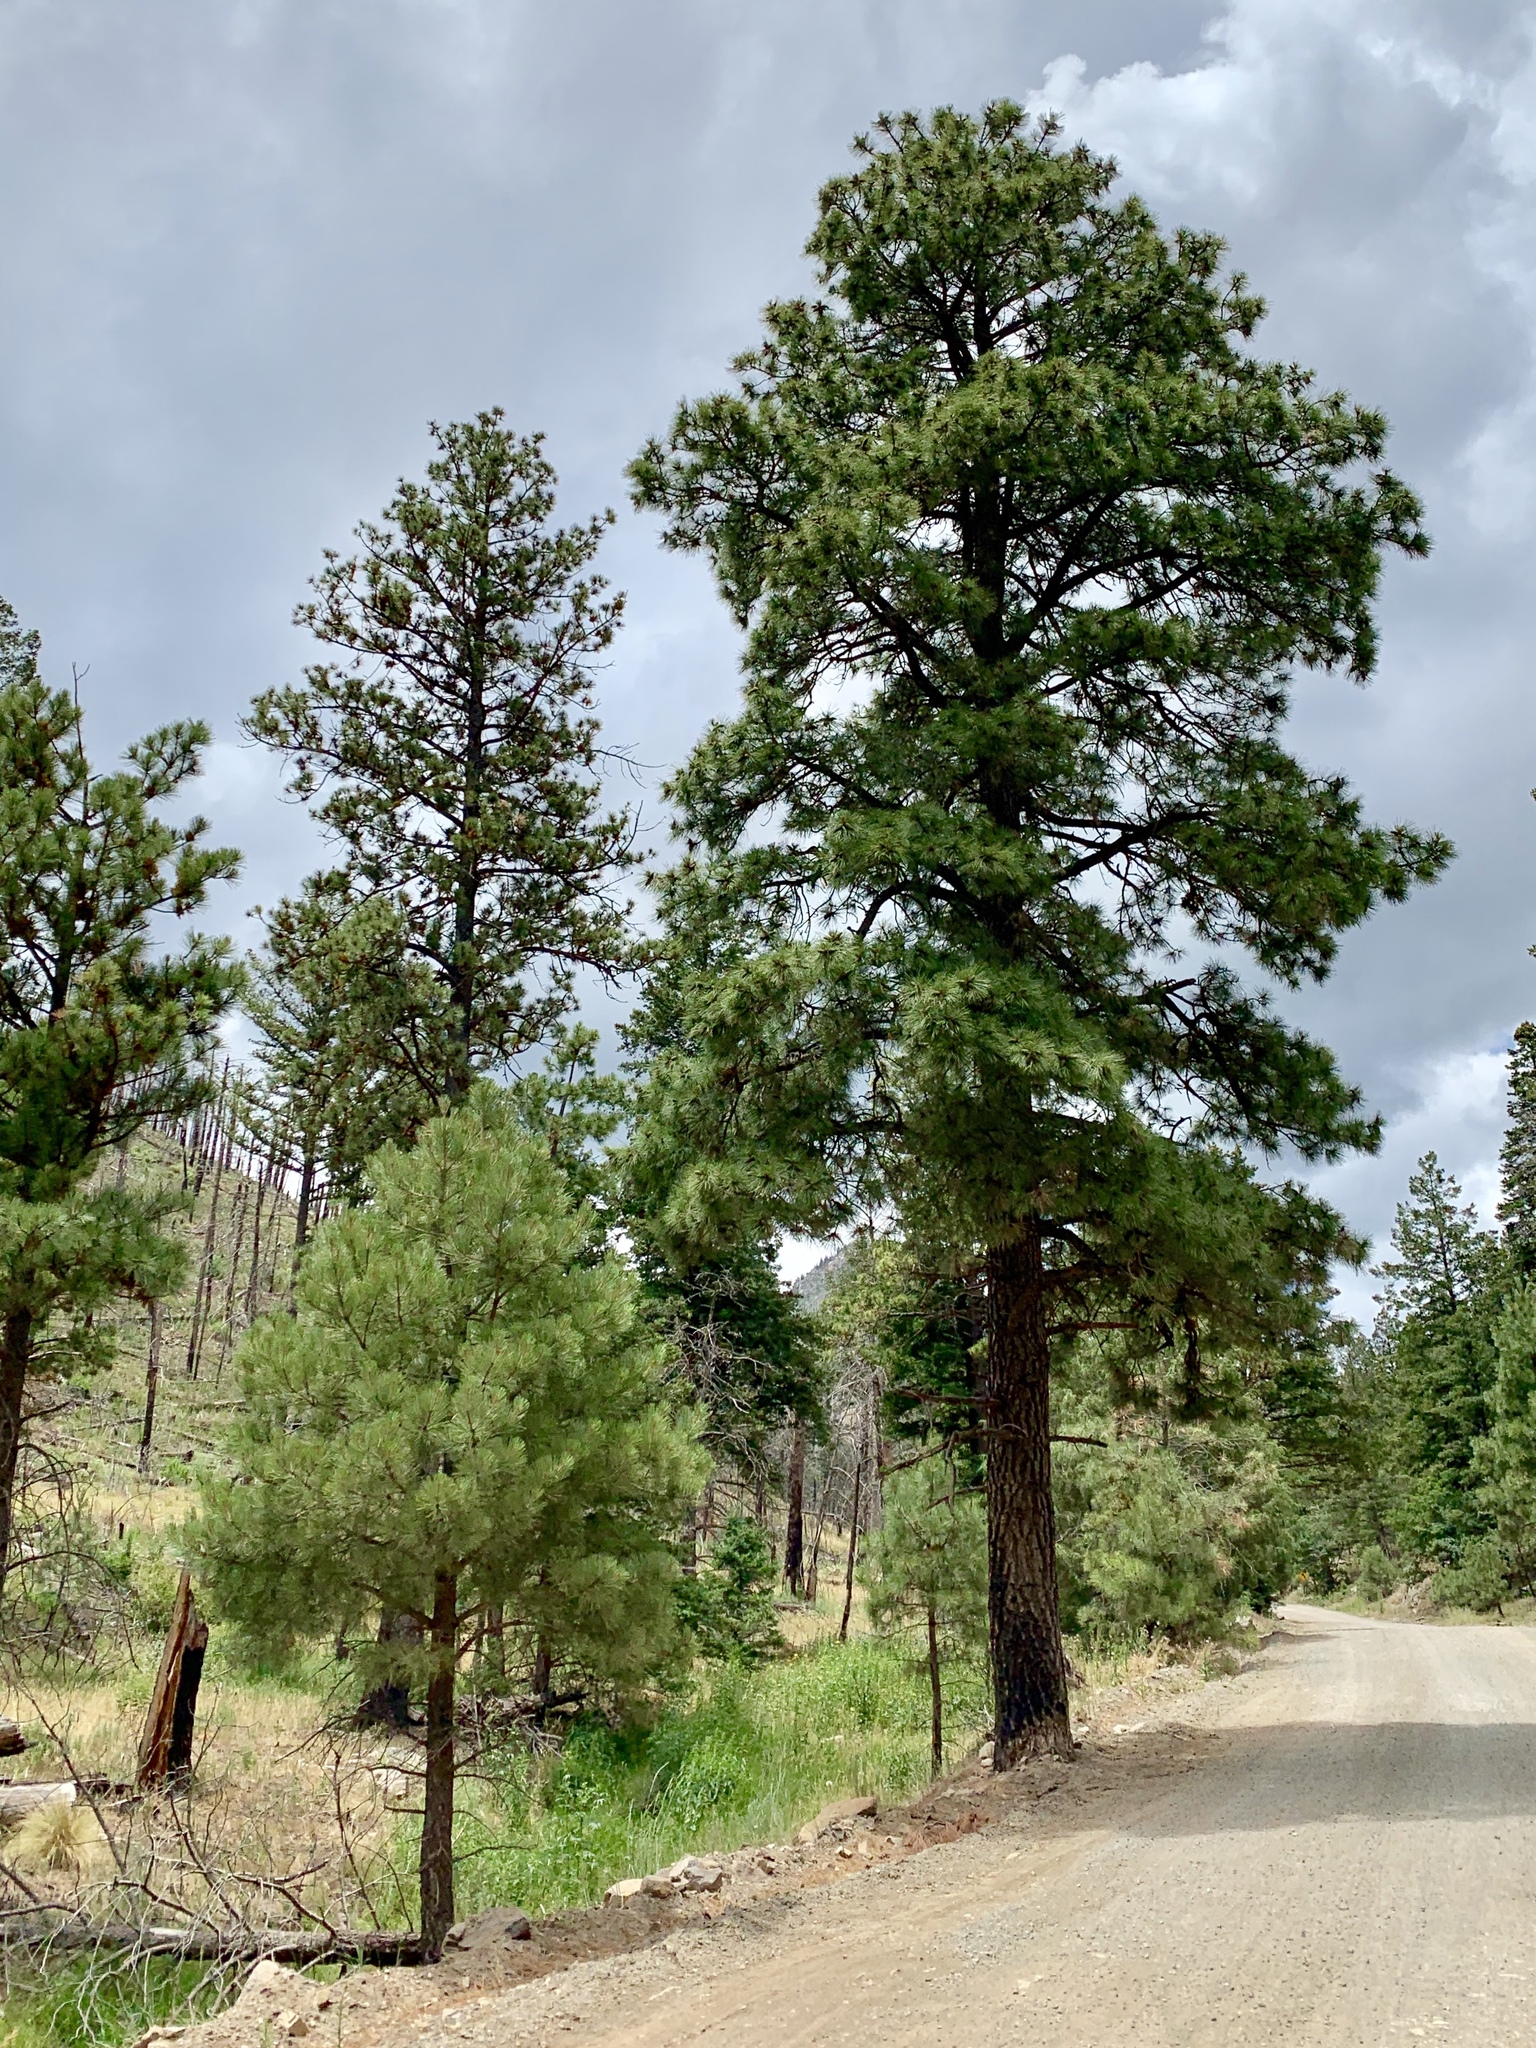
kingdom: Plantae
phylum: Tracheophyta
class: Pinopsida
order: Pinales
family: Pinaceae
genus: Pinus
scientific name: Pinus ponderosa
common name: Western yellow-pine
